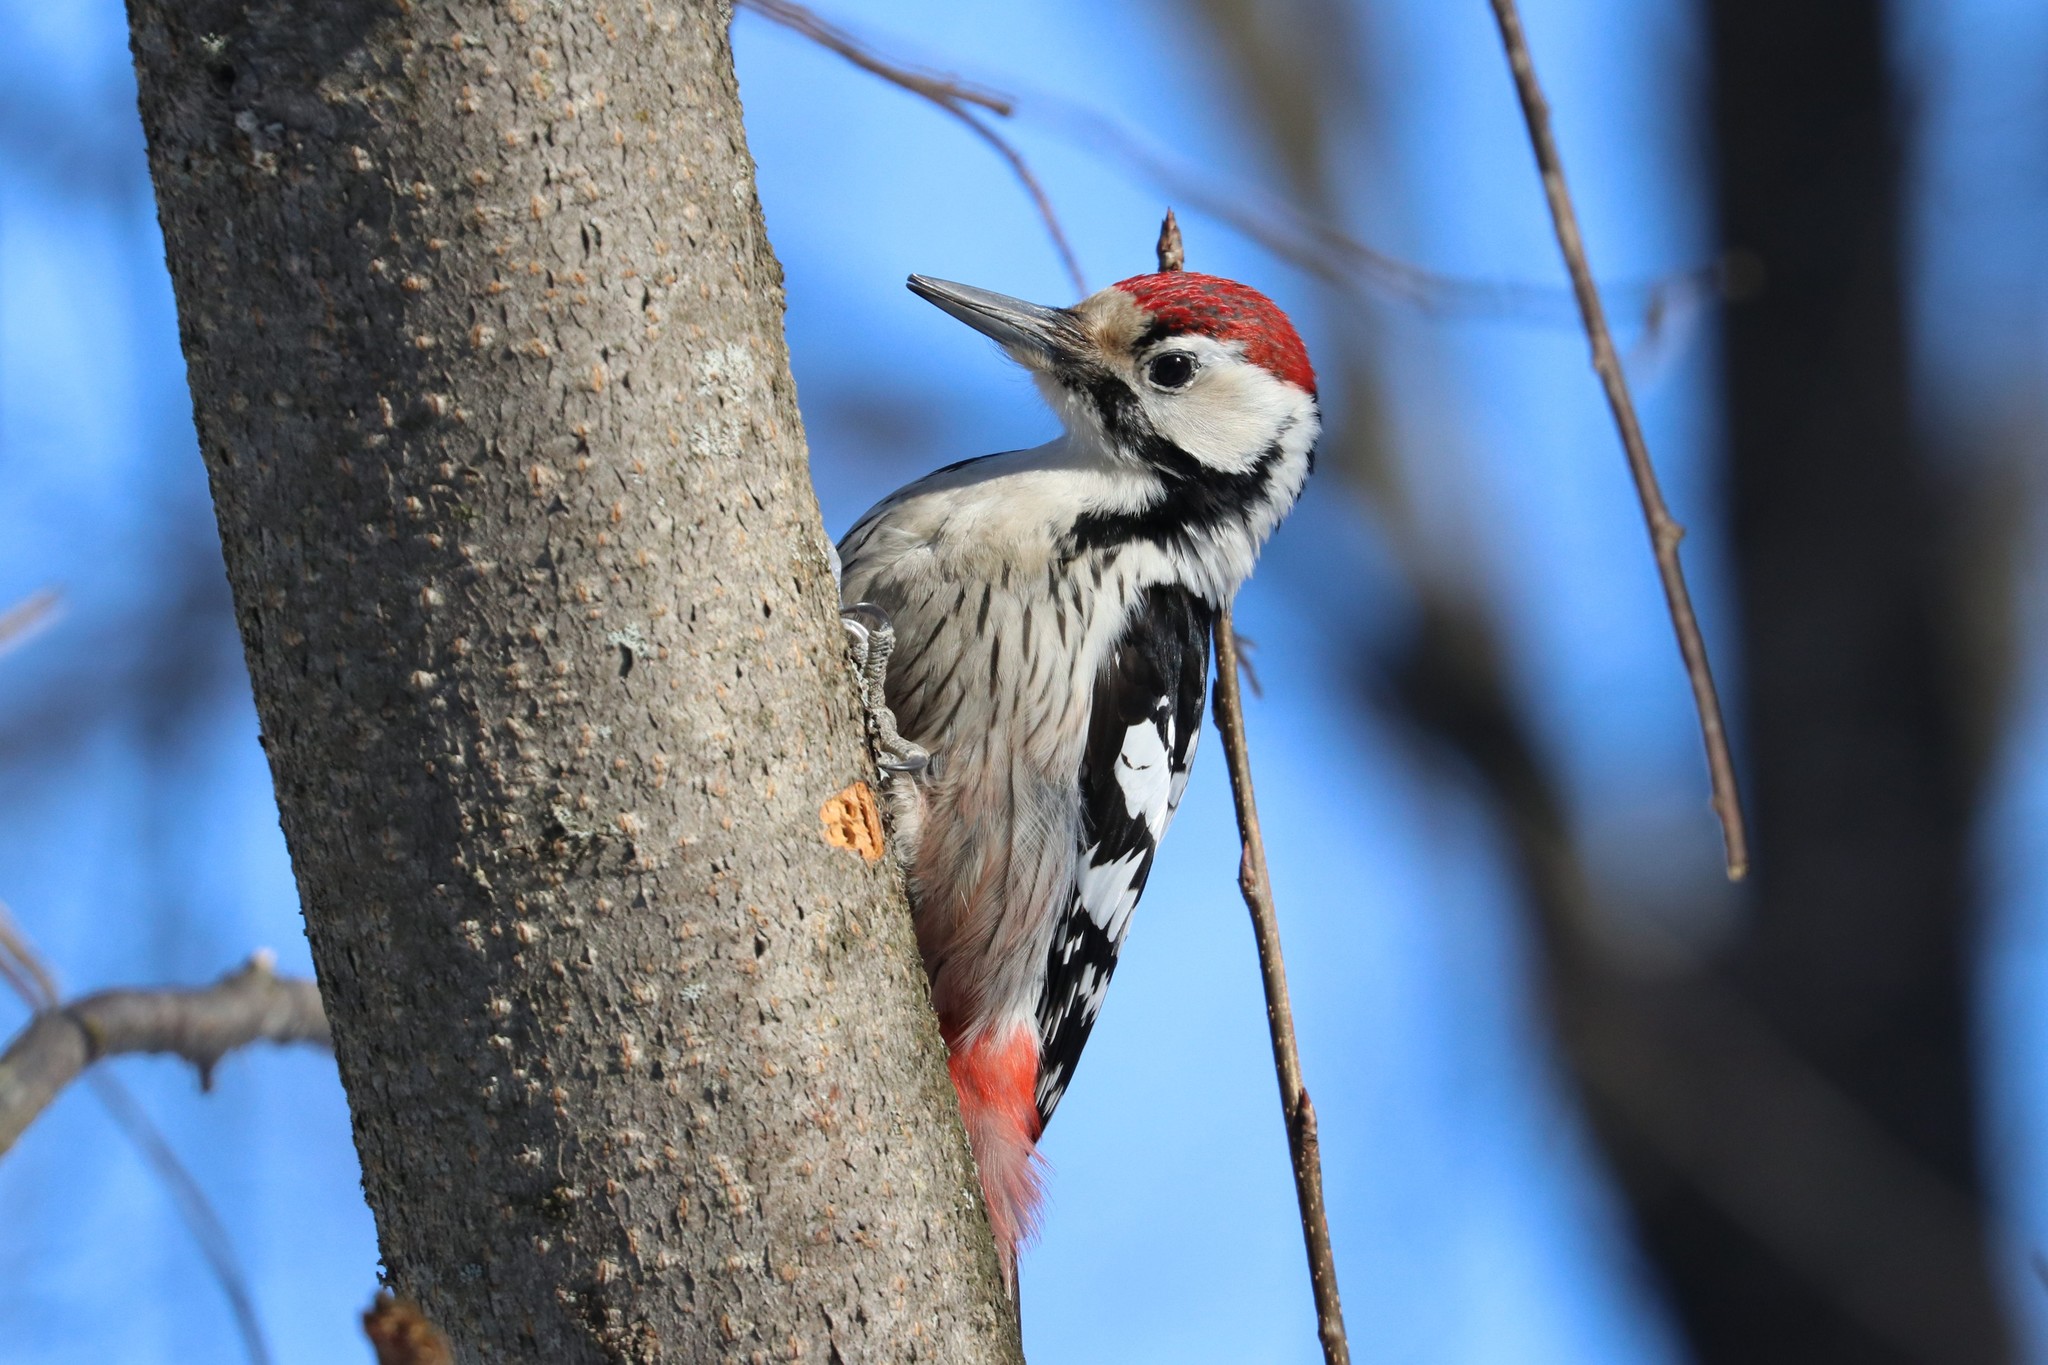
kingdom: Animalia
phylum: Chordata
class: Aves
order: Piciformes
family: Picidae
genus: Dendrocopos
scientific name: Dendrocopos leucotos
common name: White-backed woodpecker
